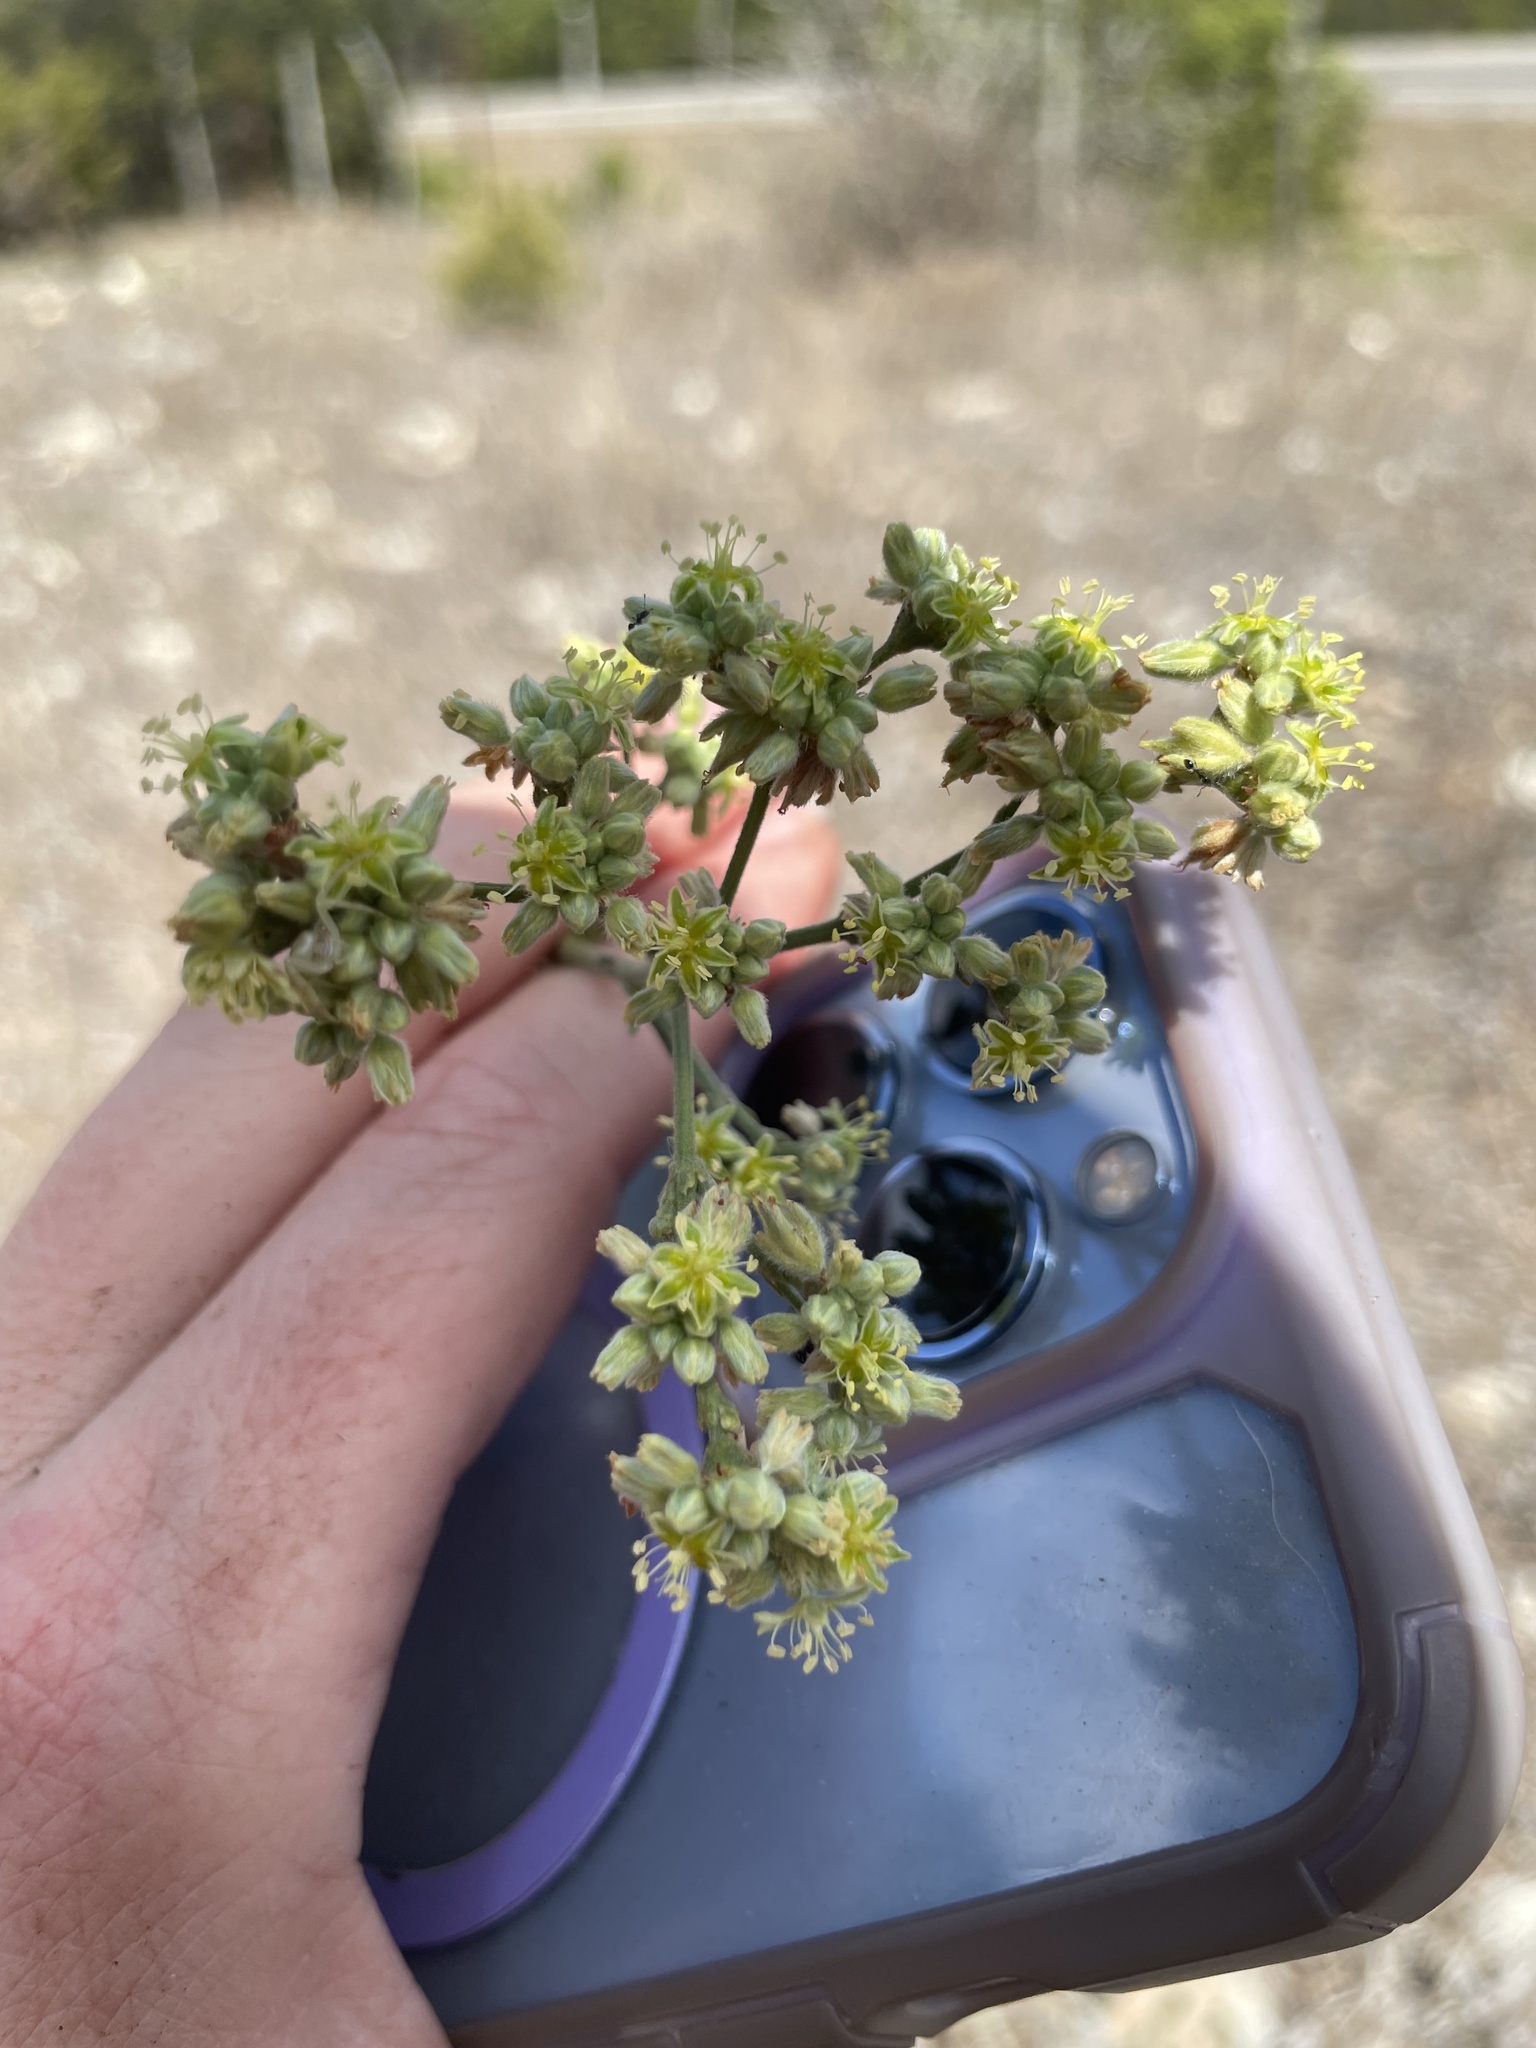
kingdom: Plantae
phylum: Tracheophyta
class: Magnoliopsida
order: Caryophyllales
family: Polygonaceae
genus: Eriogonum
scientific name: Eriogonum longifolium
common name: Longleaf wild buckwheat
